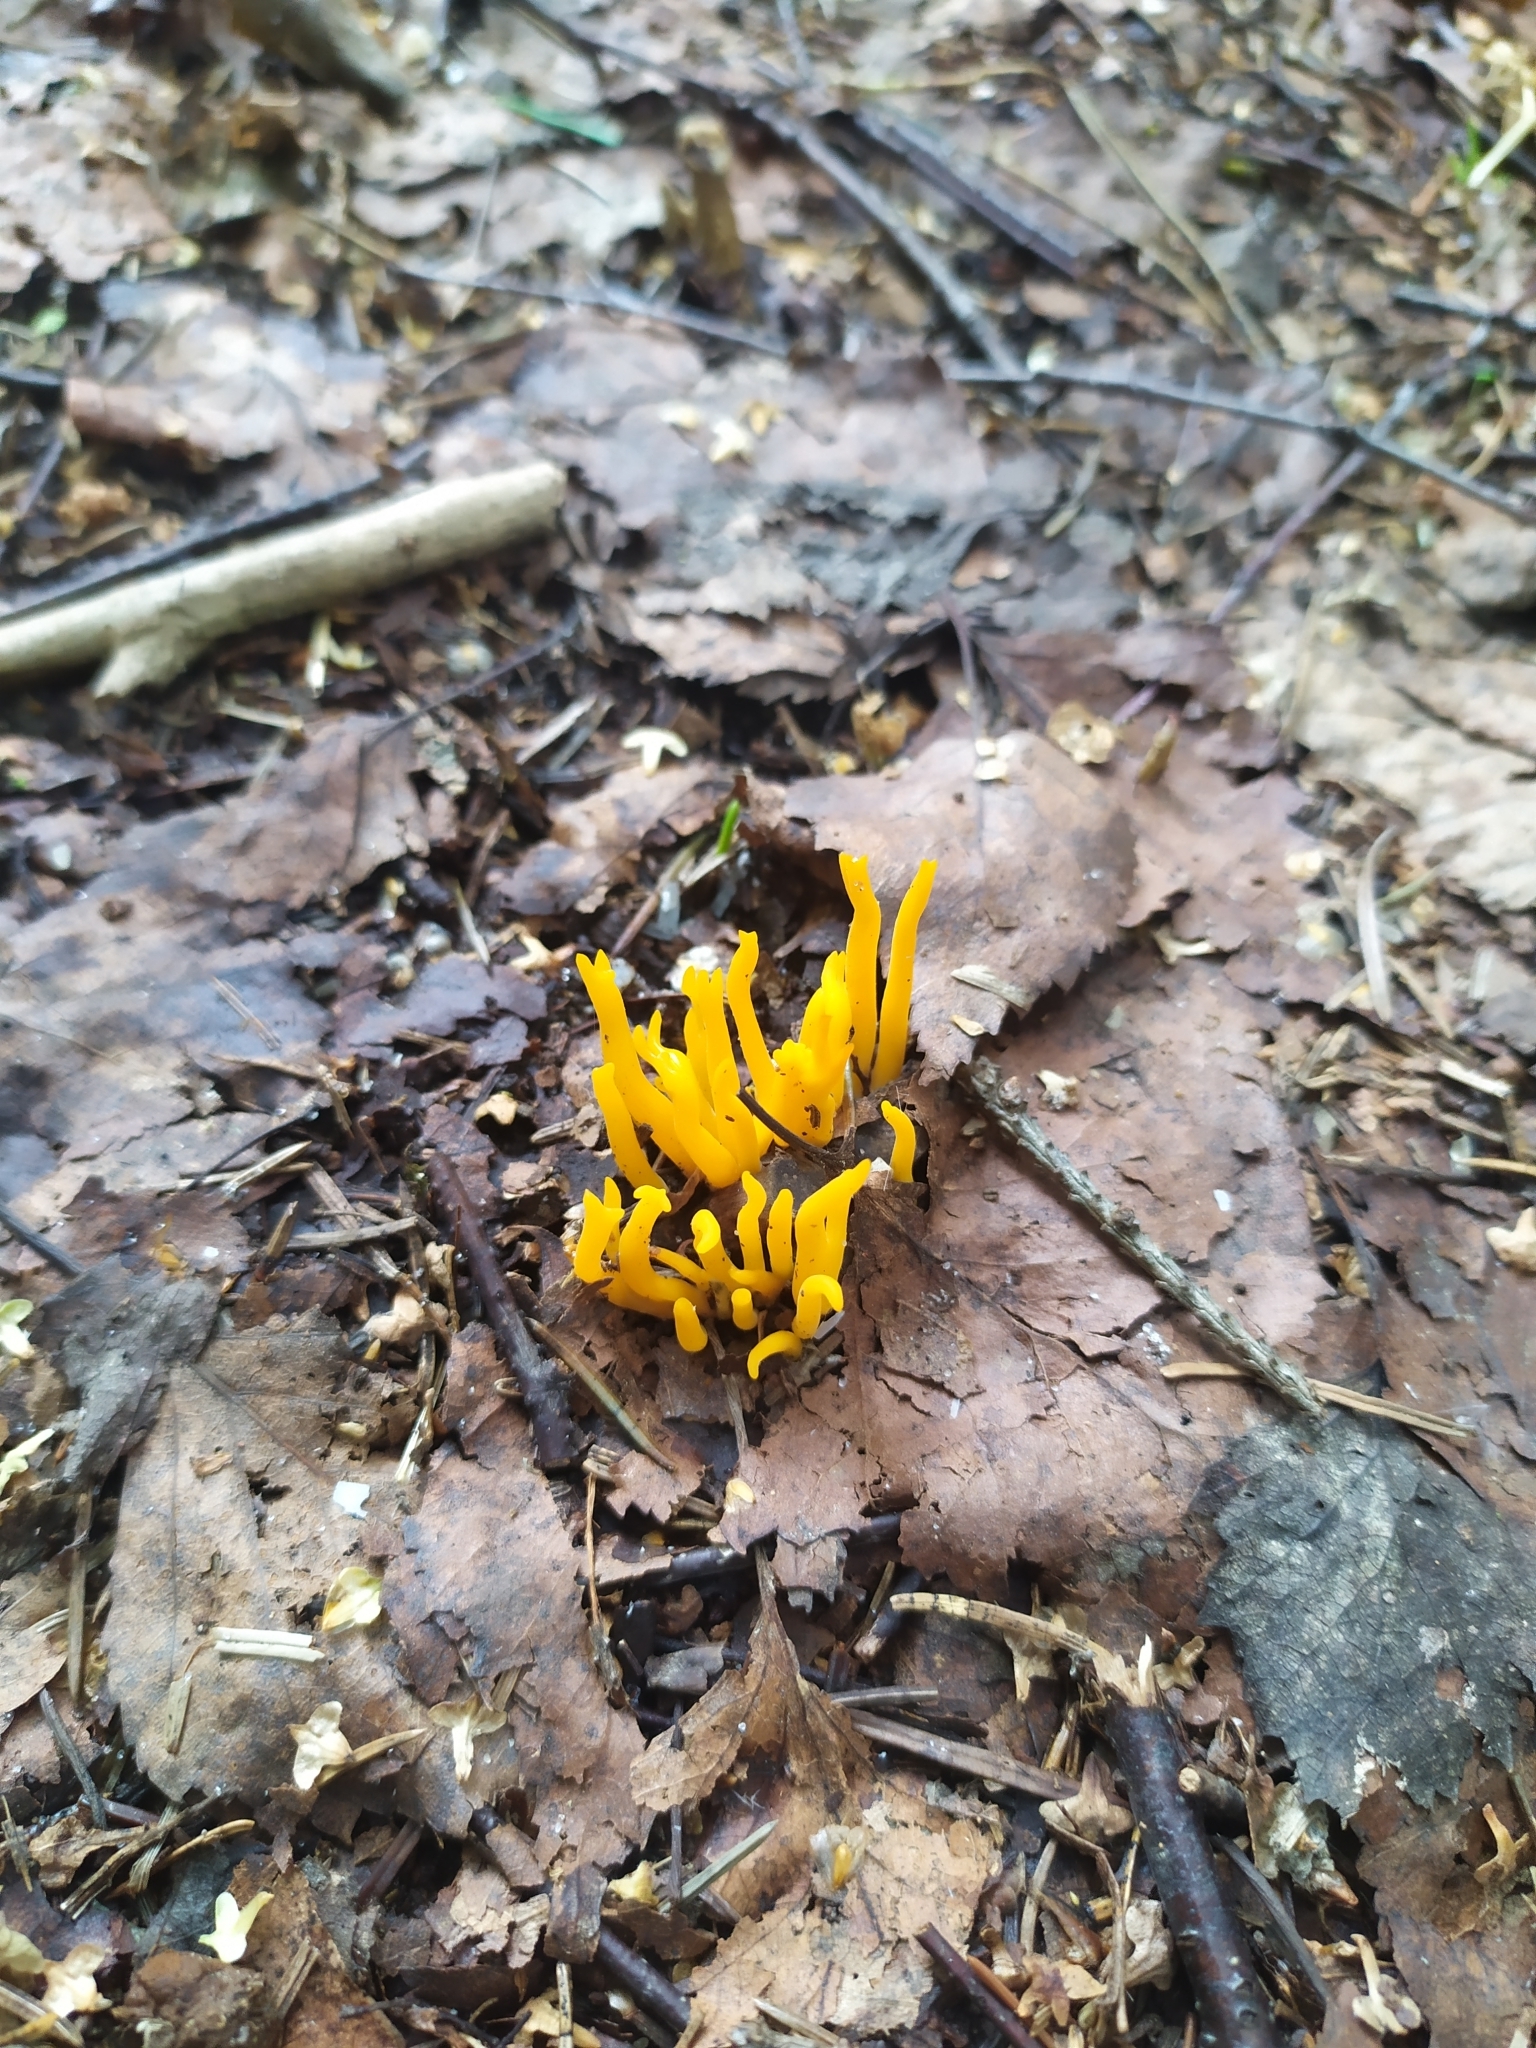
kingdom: Fungi
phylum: Basidiomycota
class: Dacrymycetes
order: Dacrymycetales
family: Dacrymycetaceae
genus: Calocera
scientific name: Calocera viscosa
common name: Yellow stagshorn
